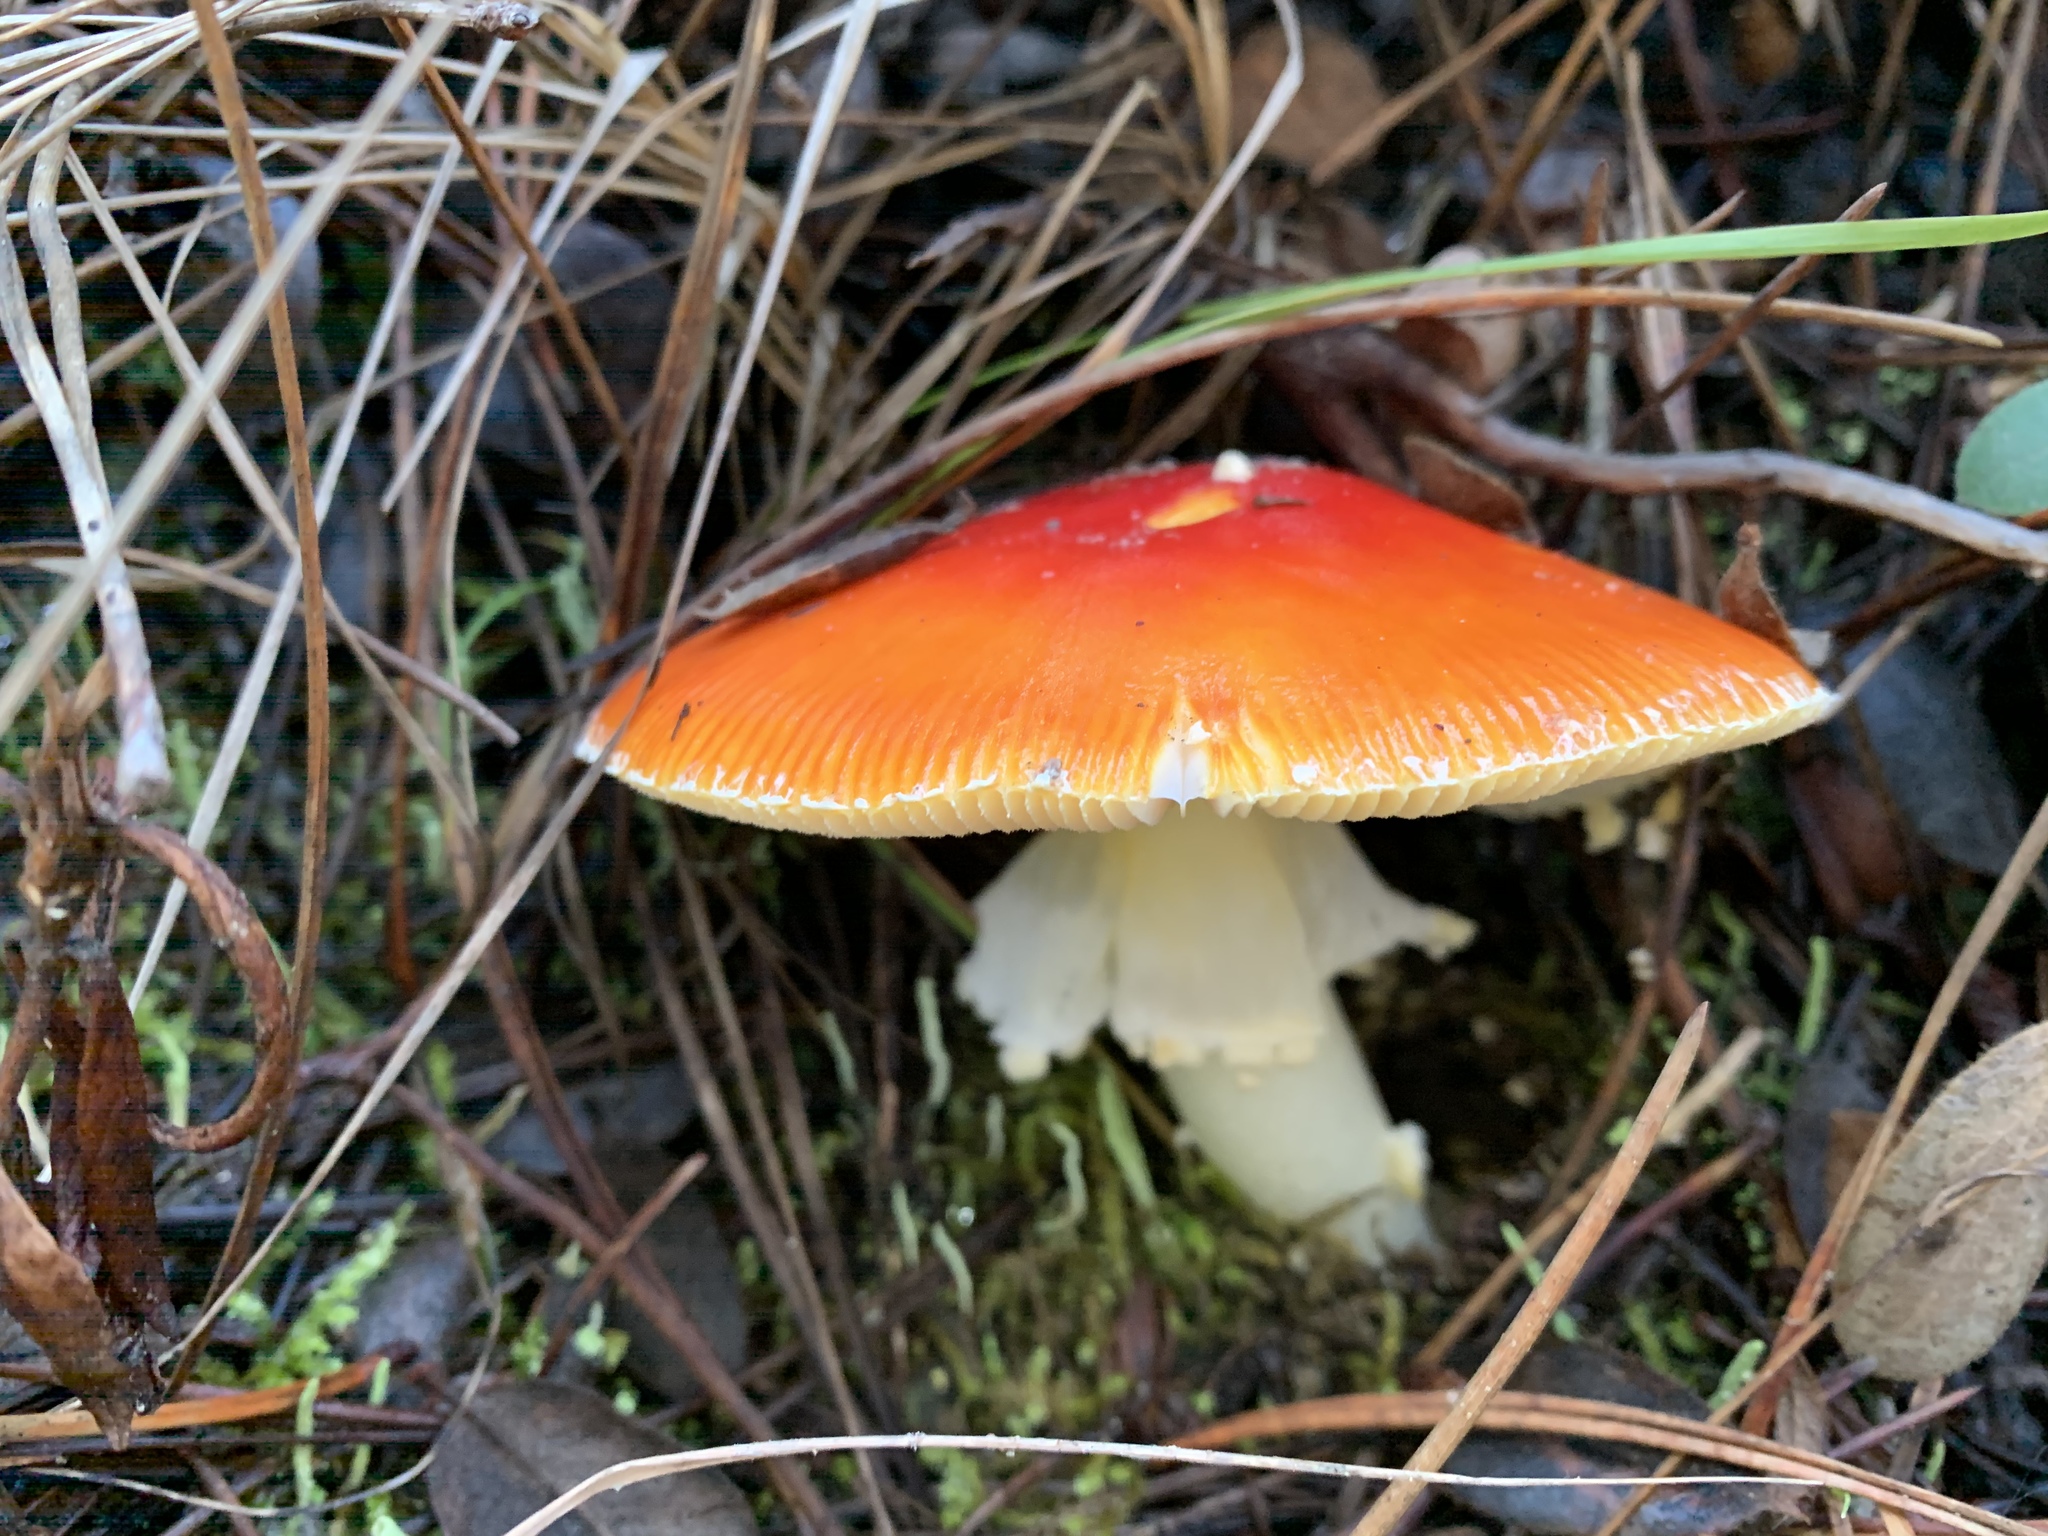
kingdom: Fungi
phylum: Basidiomycota
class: Agaricomycetes
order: Agaricales
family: Amanitaceae
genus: Amanita
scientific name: Amanita muscaria
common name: Fly agaric
